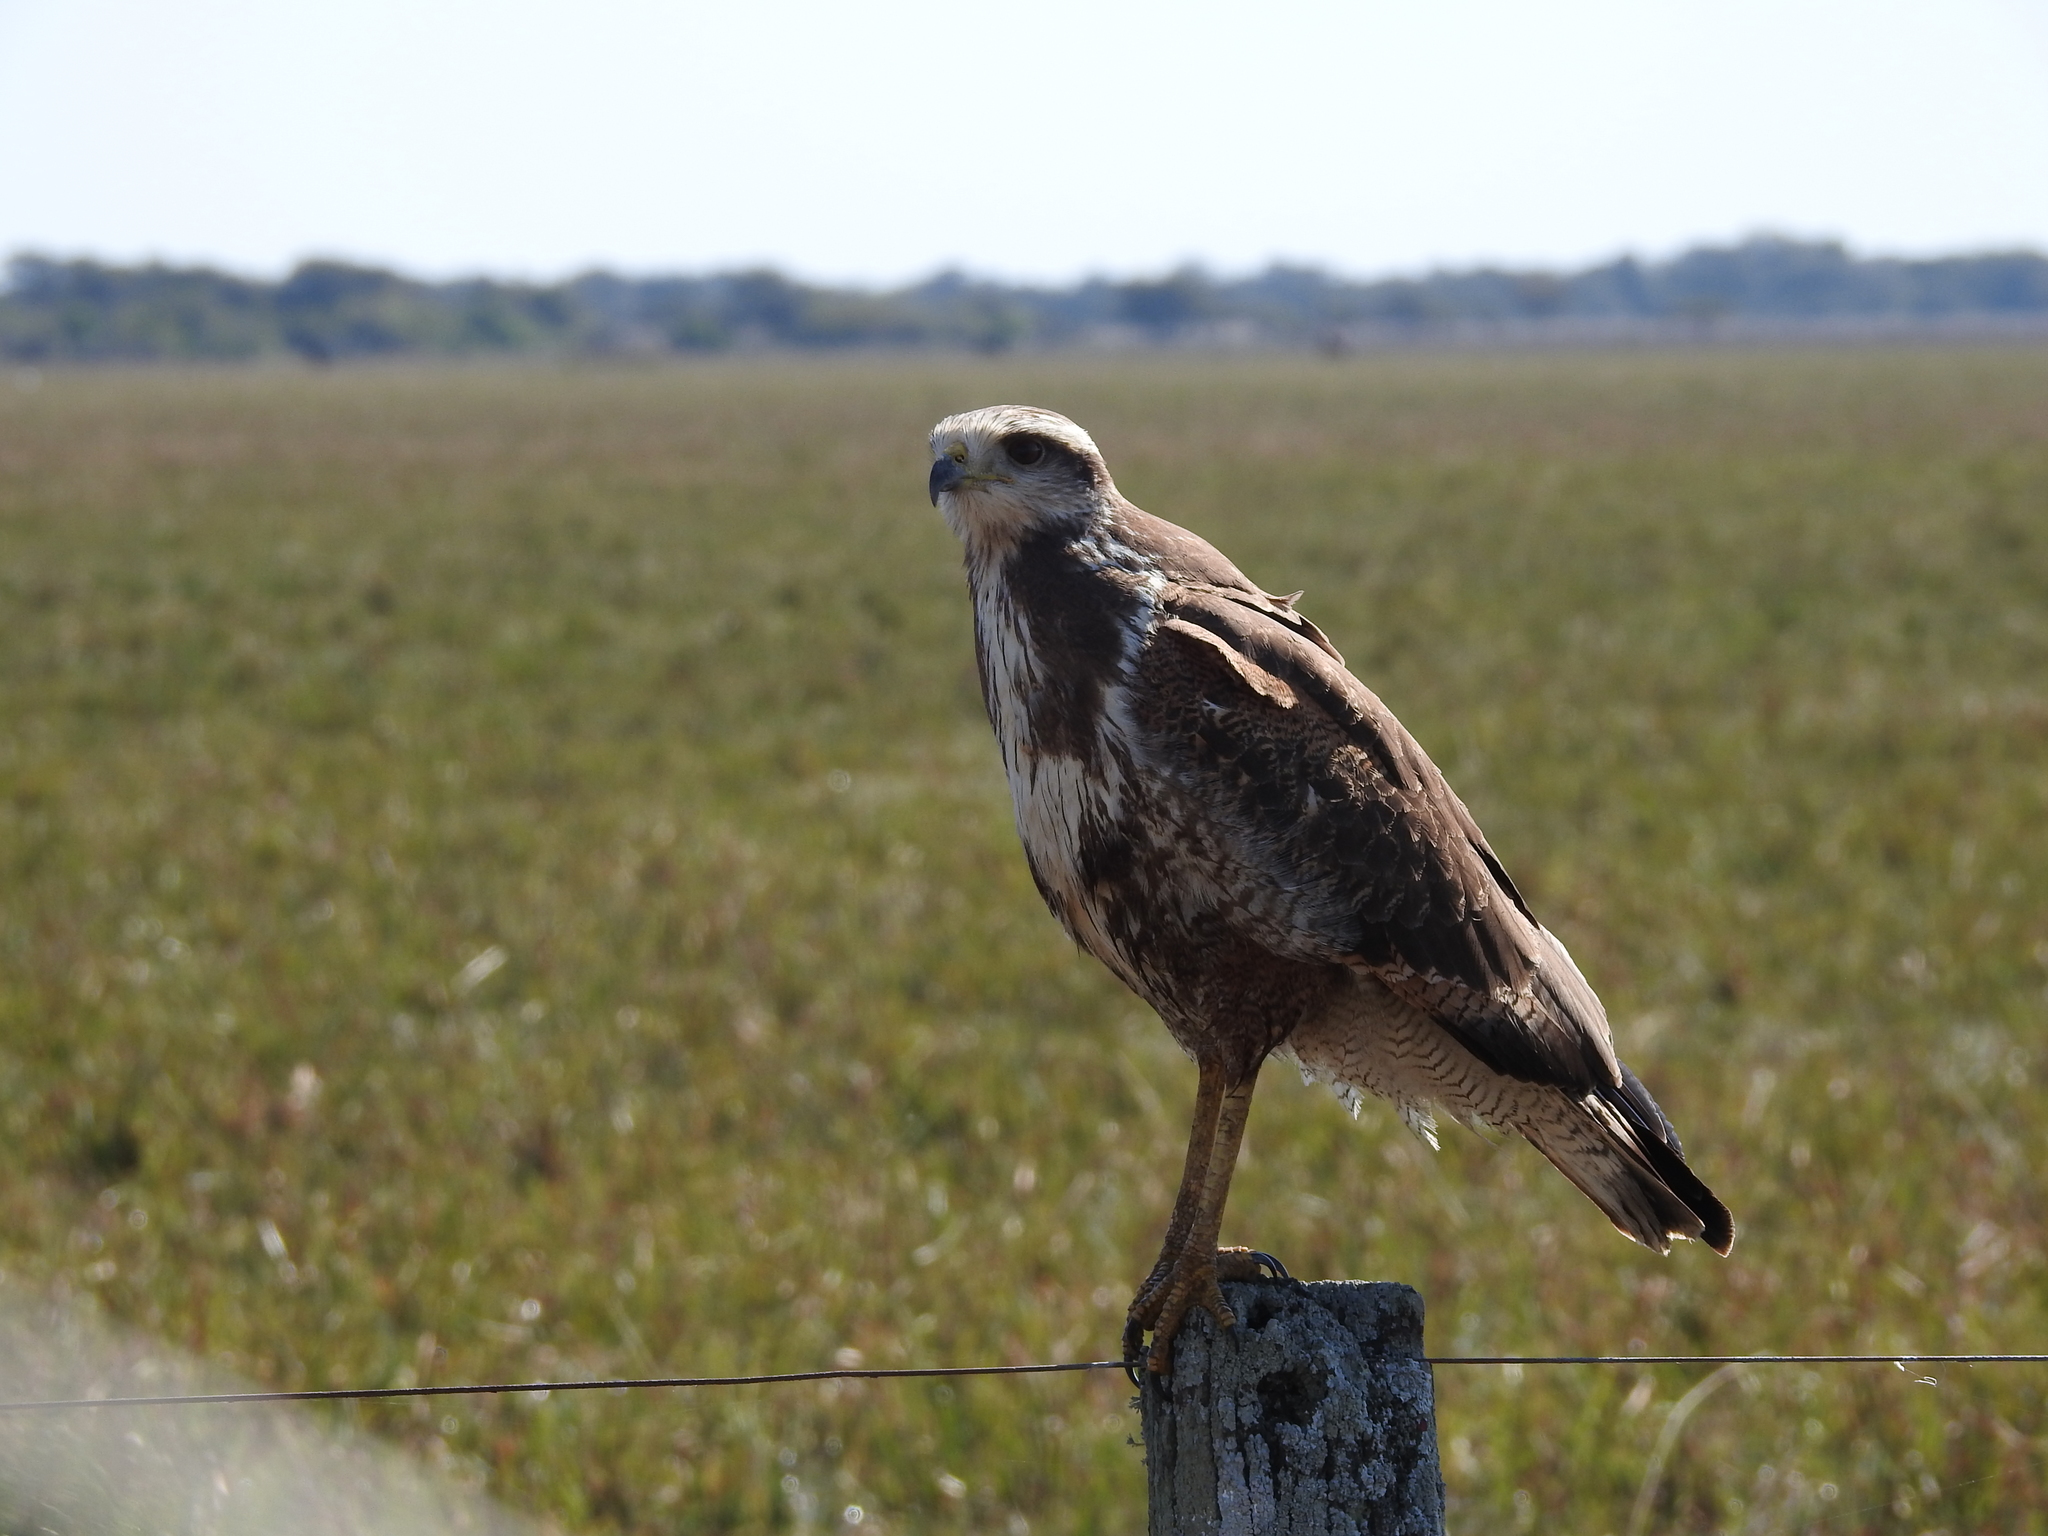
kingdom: Animalia
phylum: Chordata
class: Aves
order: Accipitriformes
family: Accipitridae
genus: Buteogallus
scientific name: Buteogallus meridionalis
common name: Savanna hawk
